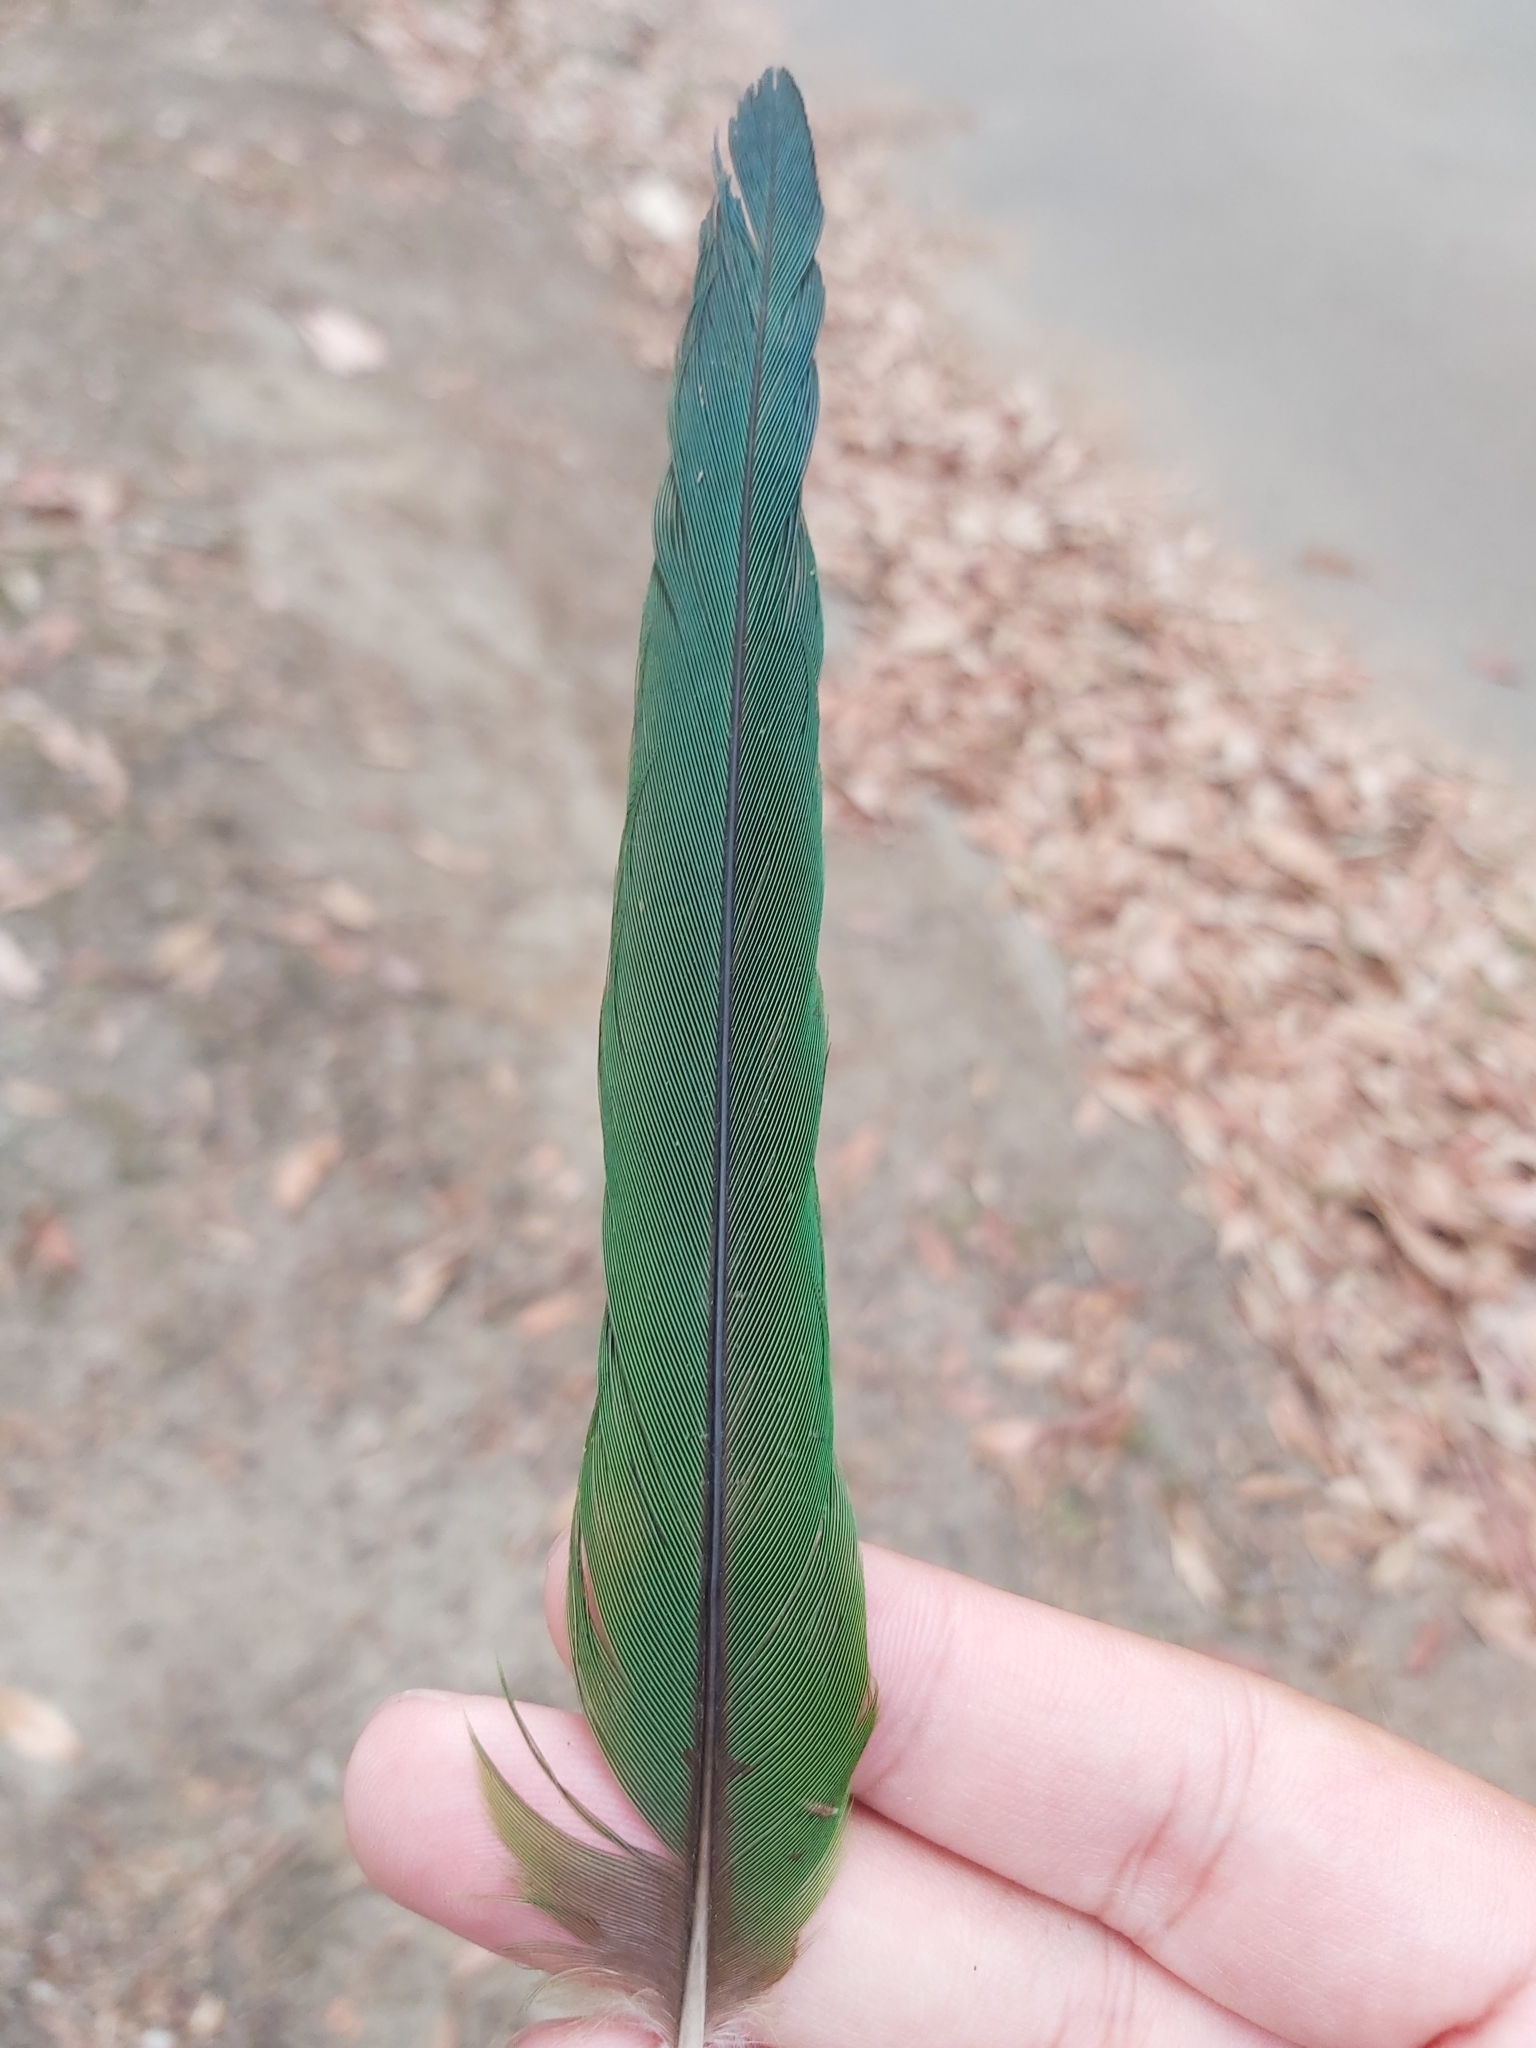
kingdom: Animalia
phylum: Chordata
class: Aves
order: Psittaciformes
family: Psittacidae
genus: Trichoglossus
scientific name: Trichoglossus haematodus
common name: Coconut lorikeet
